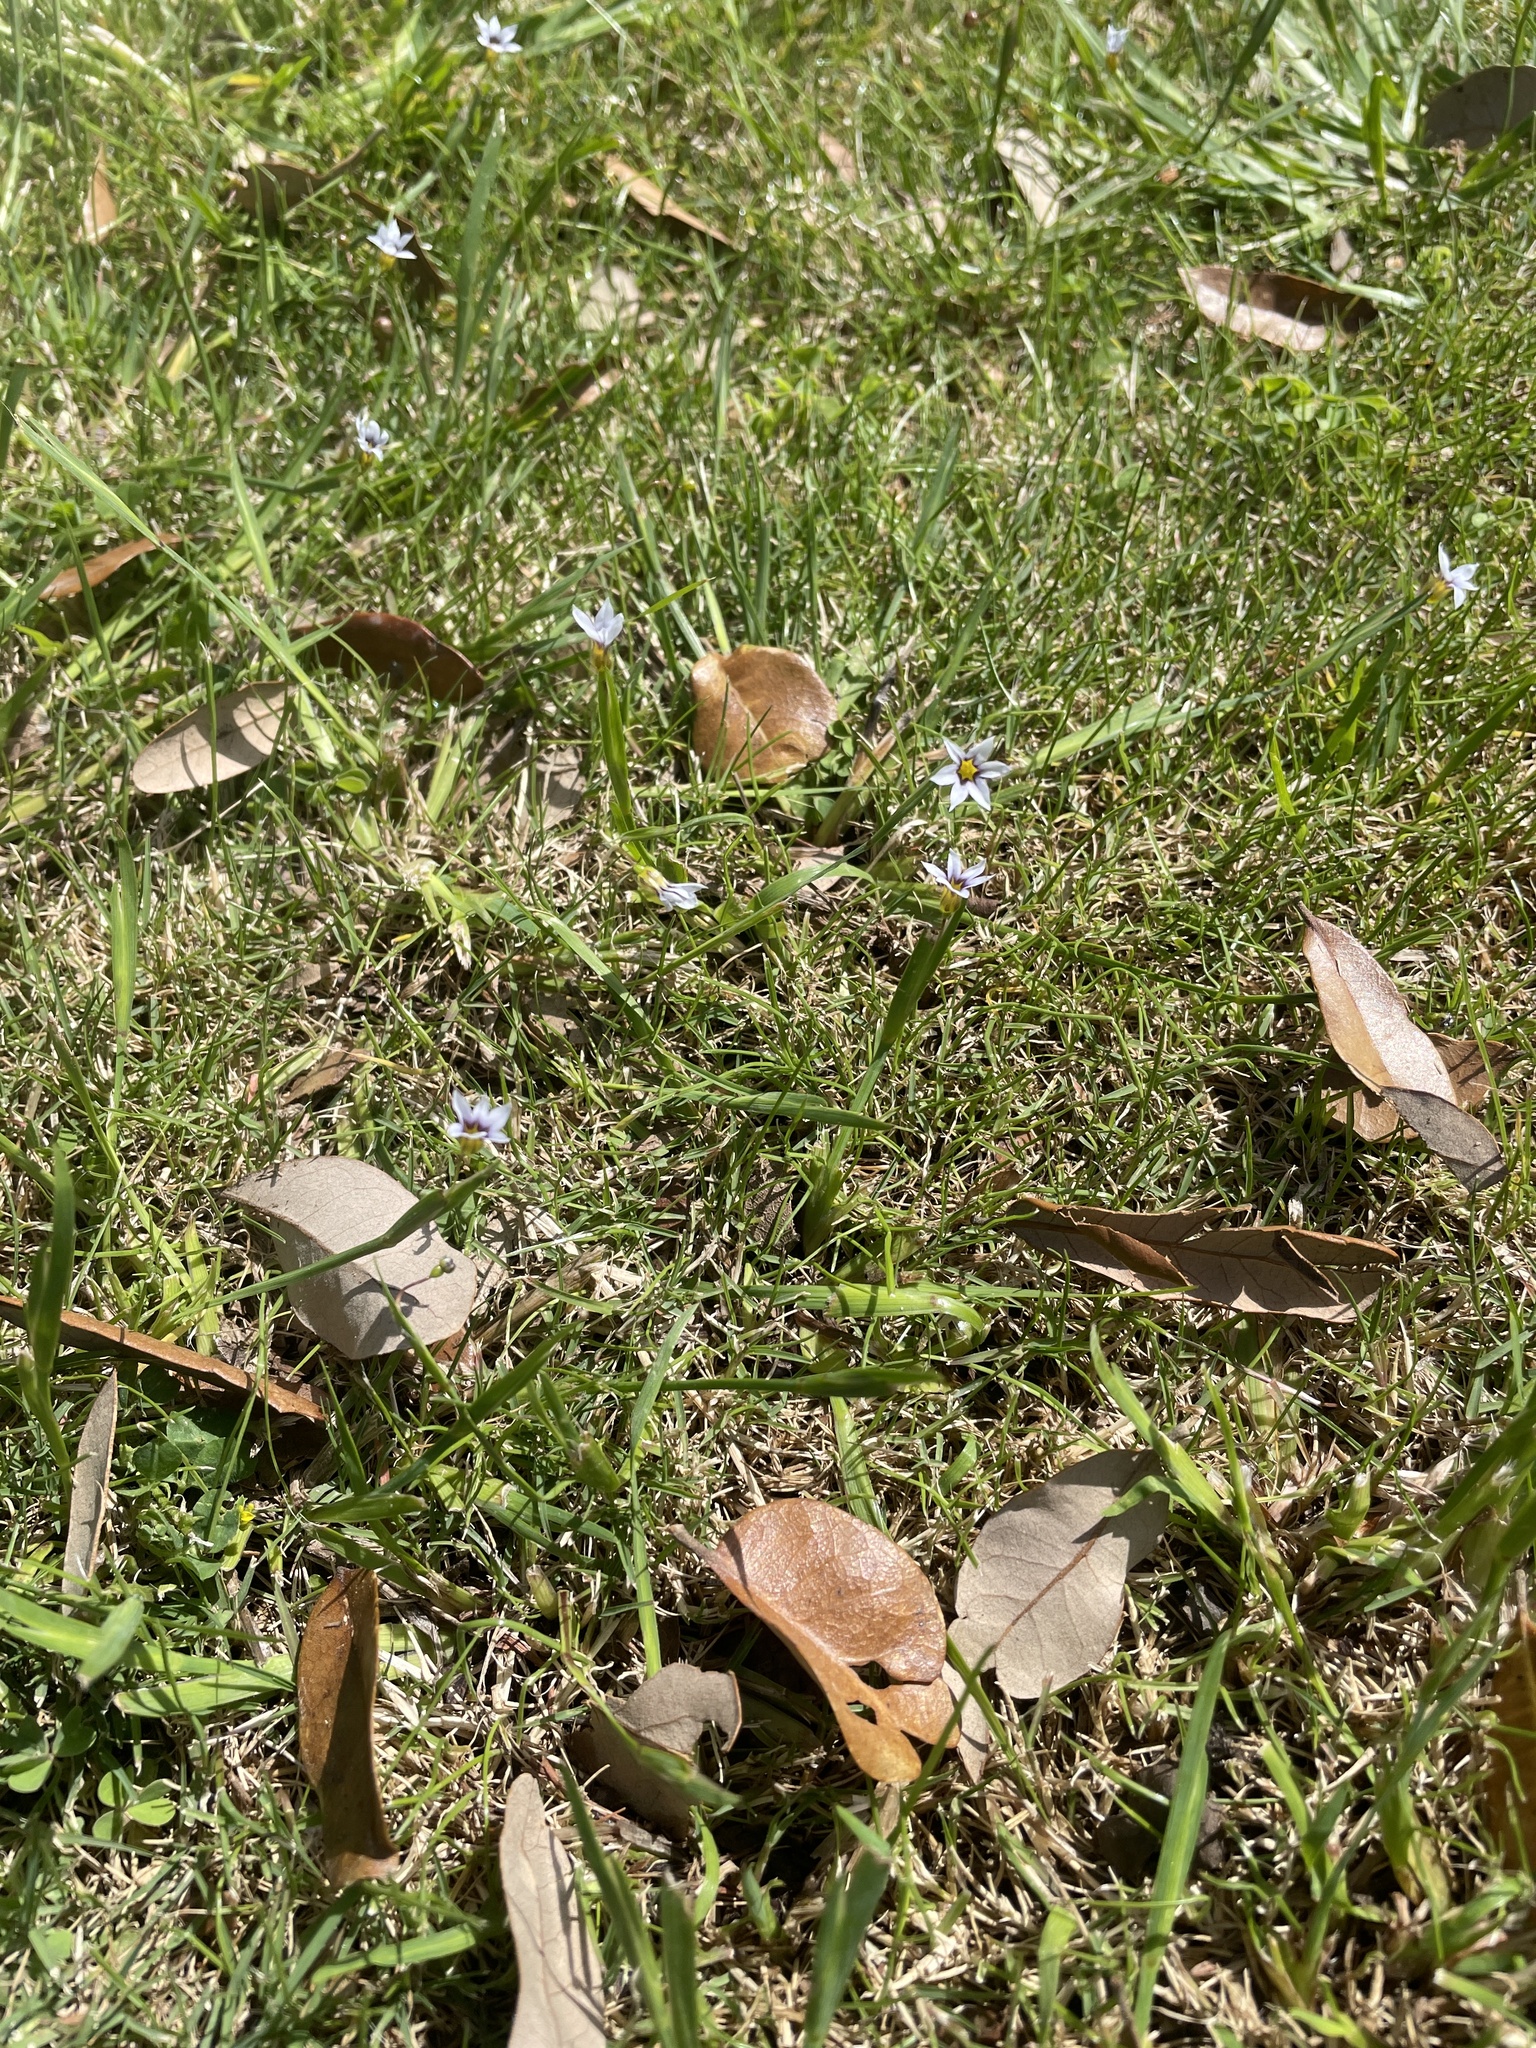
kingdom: Plantae
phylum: Tracheophyta
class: Liliopsida
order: Asparagales
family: Iridaceae
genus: Sisyrinchium
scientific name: Sisyrinchium micranthum
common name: Bermuda pigroot
